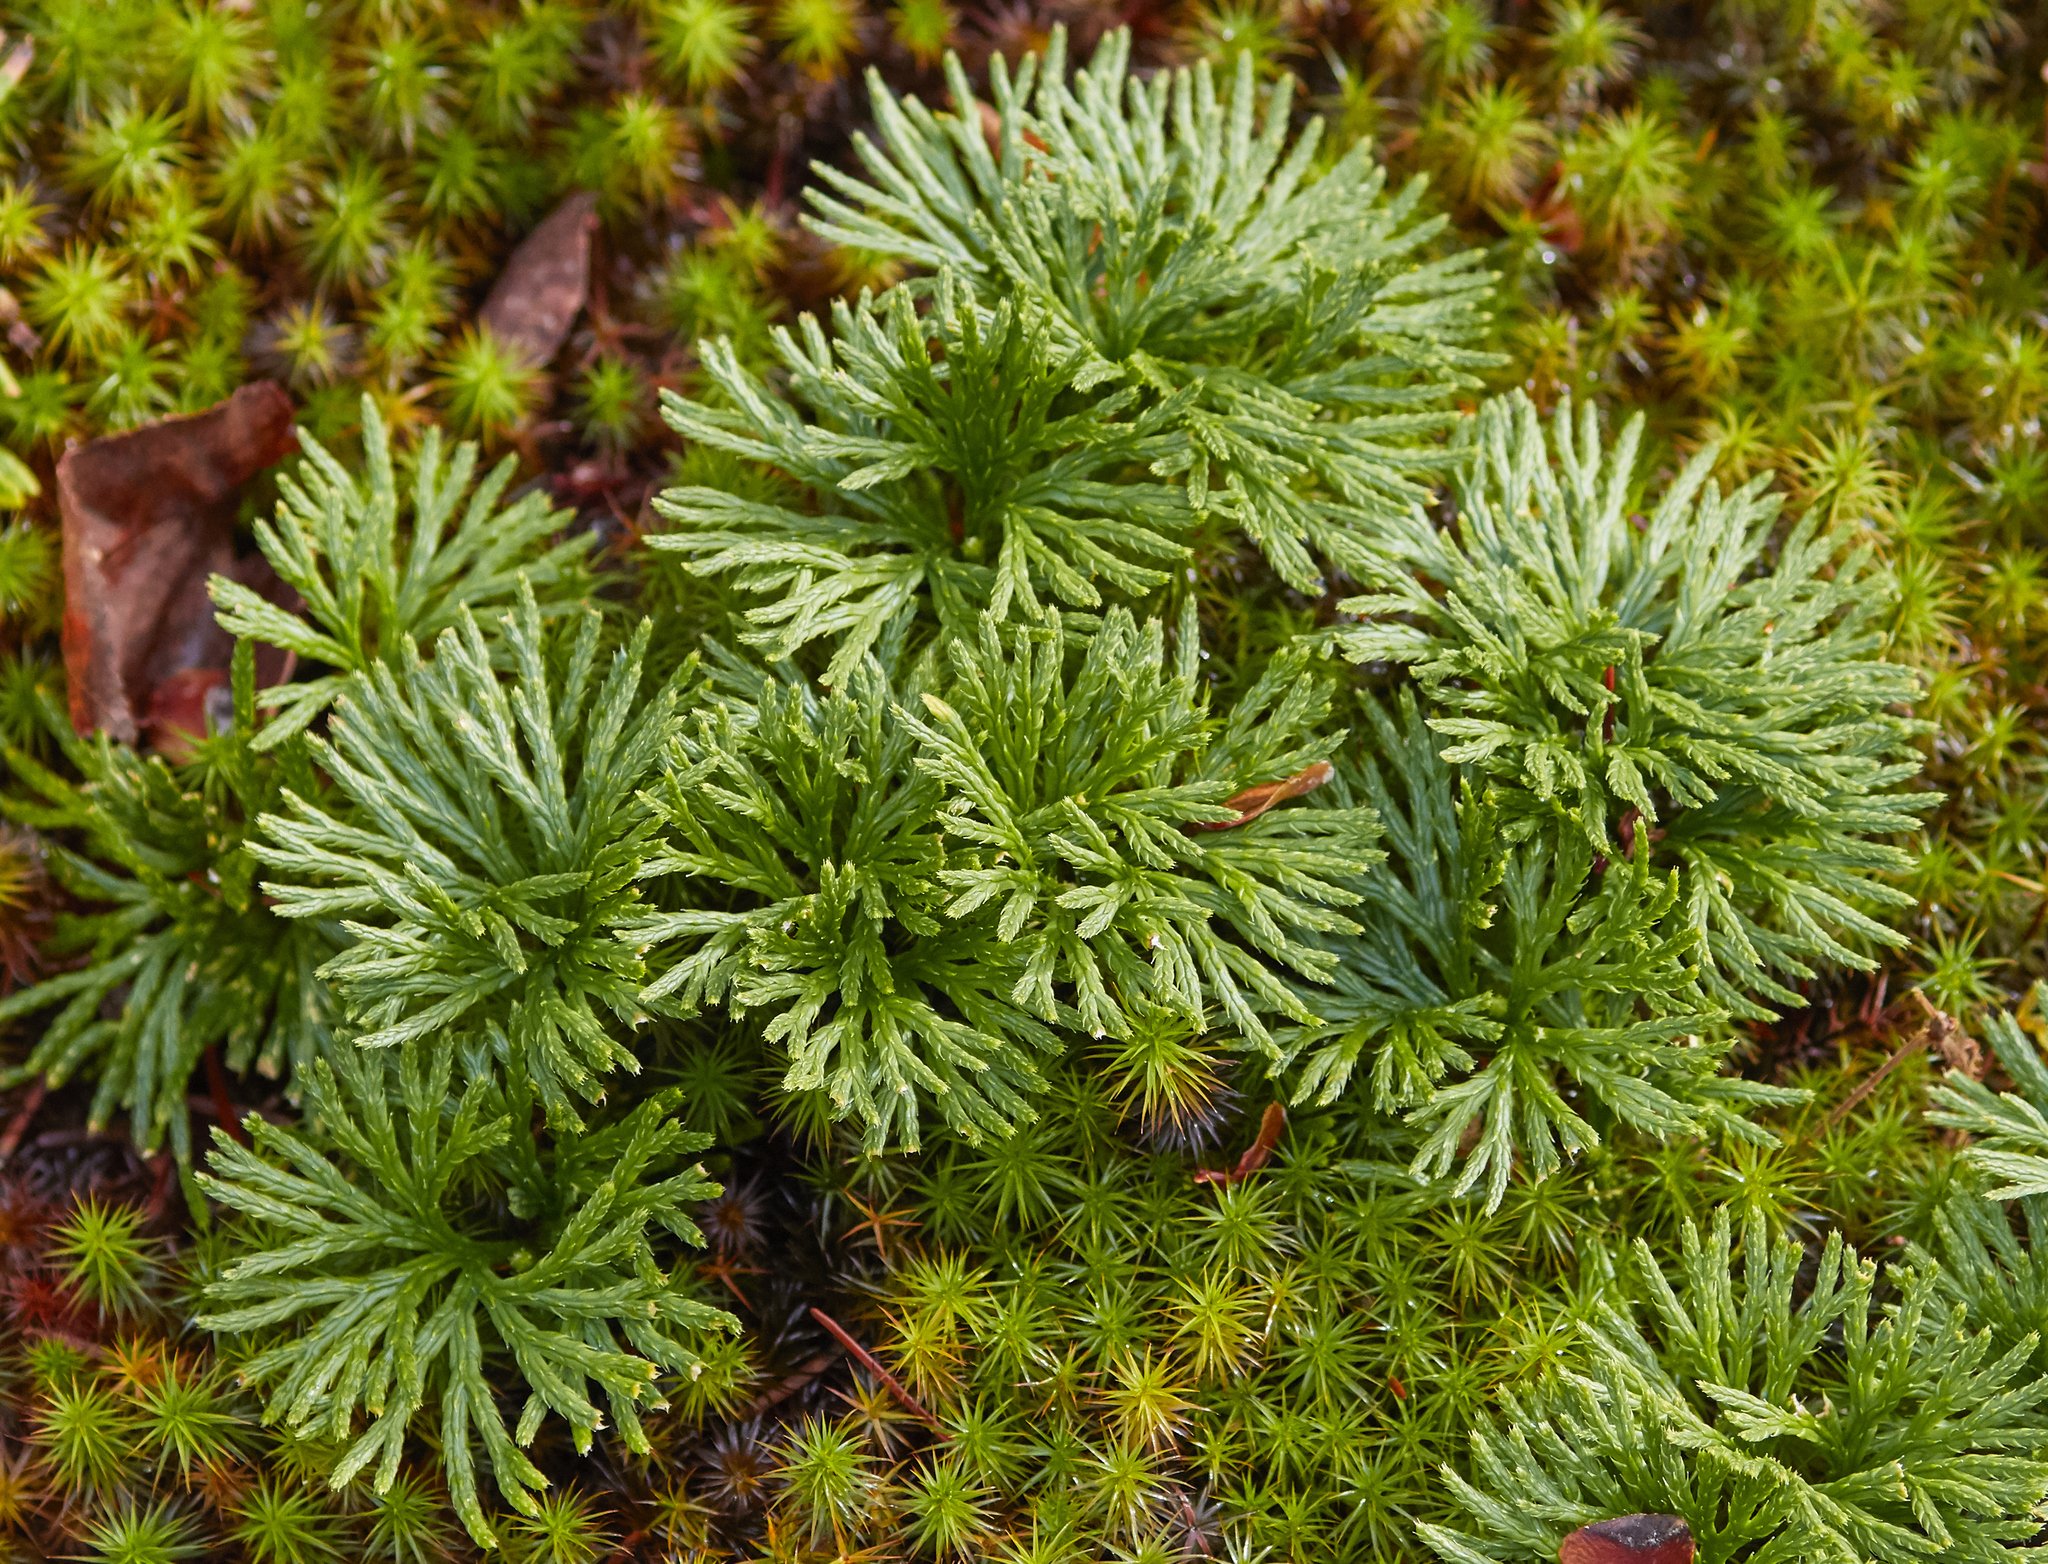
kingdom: Plantae
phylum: Tracheophyta
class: Lycopodiopsida
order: Lycopodiales
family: Lycopodiaceae
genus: Diphasiastrum
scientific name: Diphasiastrum digitatum
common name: Southern running-pine
